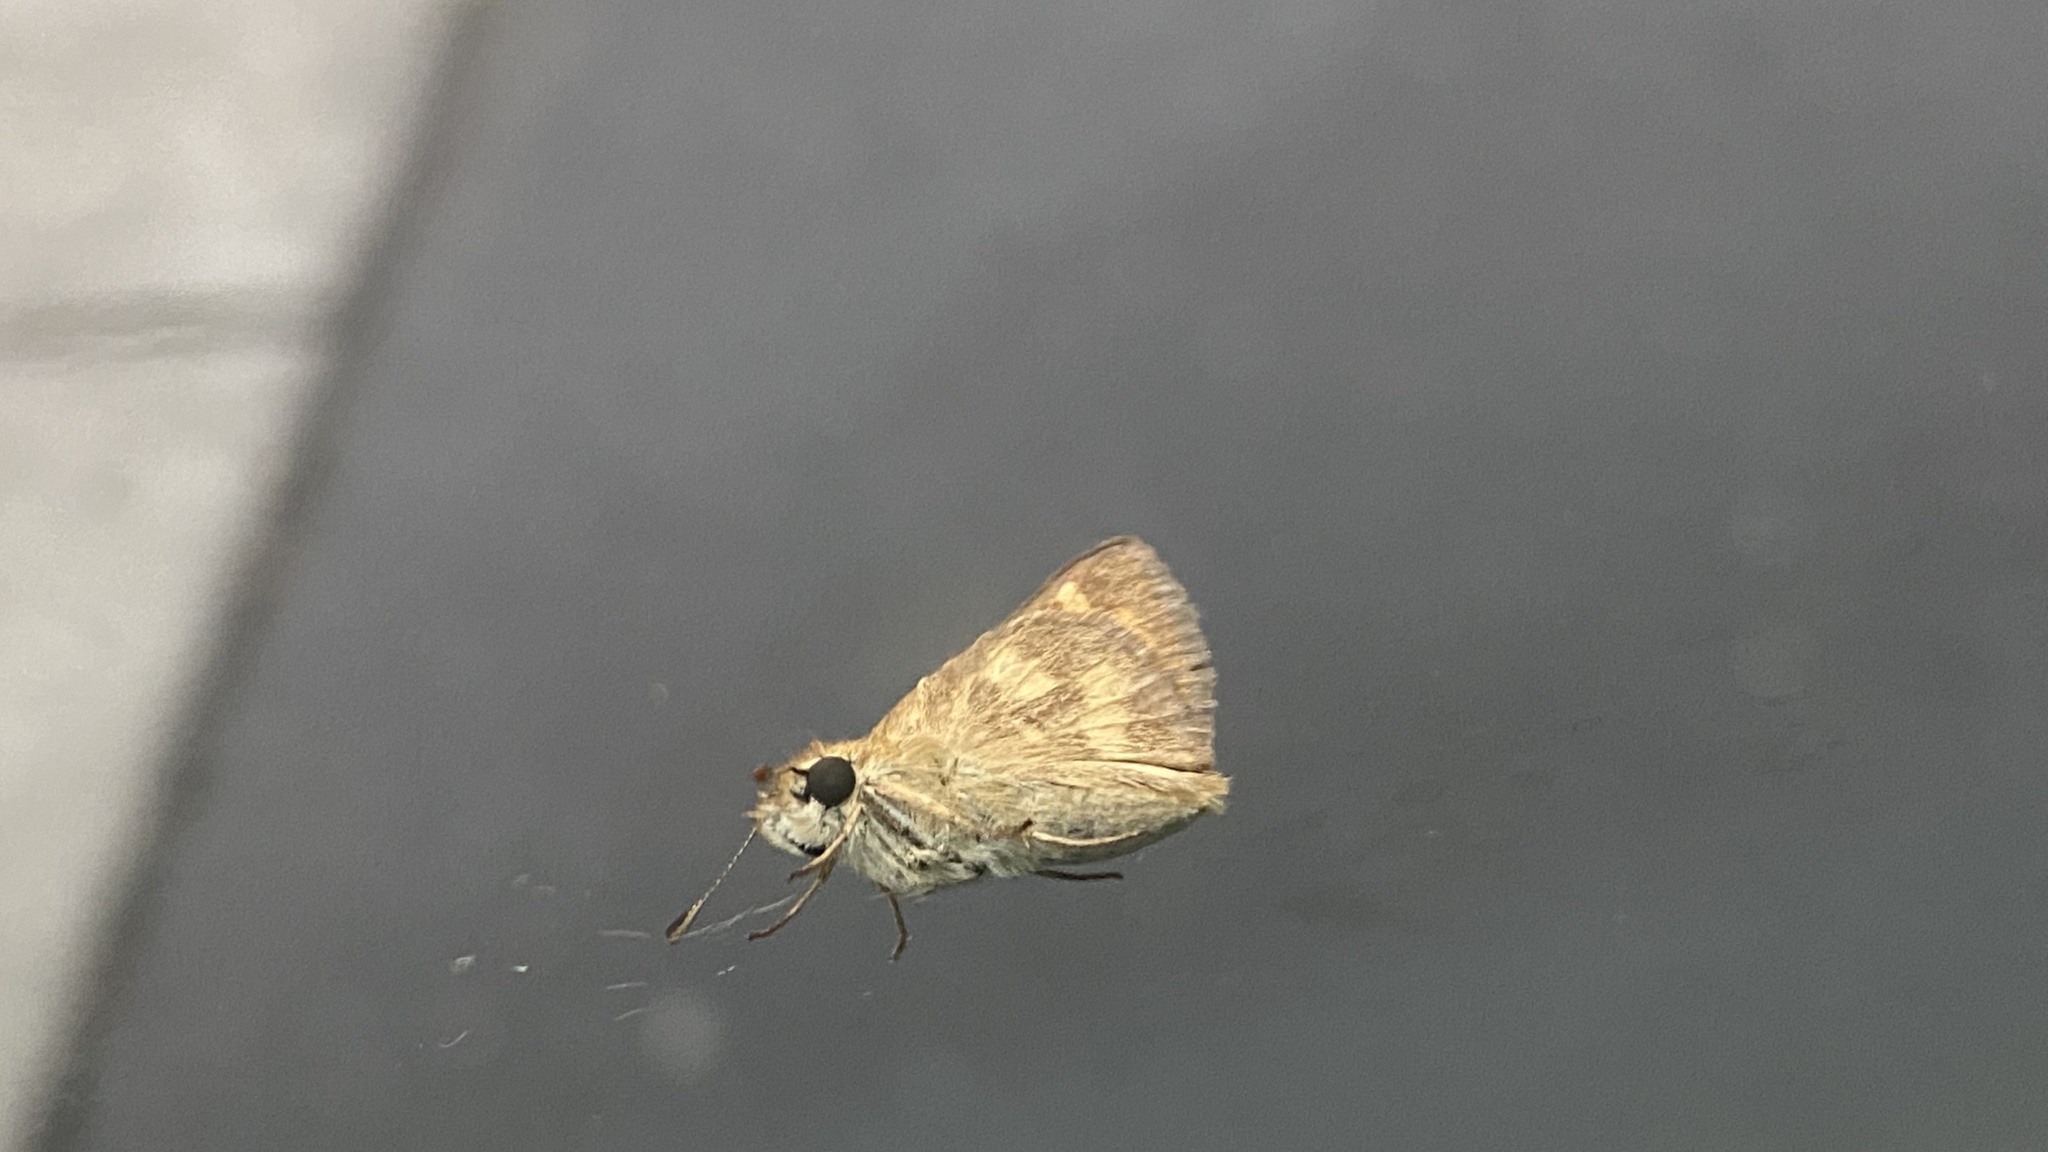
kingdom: Animalia
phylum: Arthropoda
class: Insecta
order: Lepidoptera
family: Hesperiidae
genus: Ochlodes
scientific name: Ochlodes sylvanoides
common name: Woodland skipper
